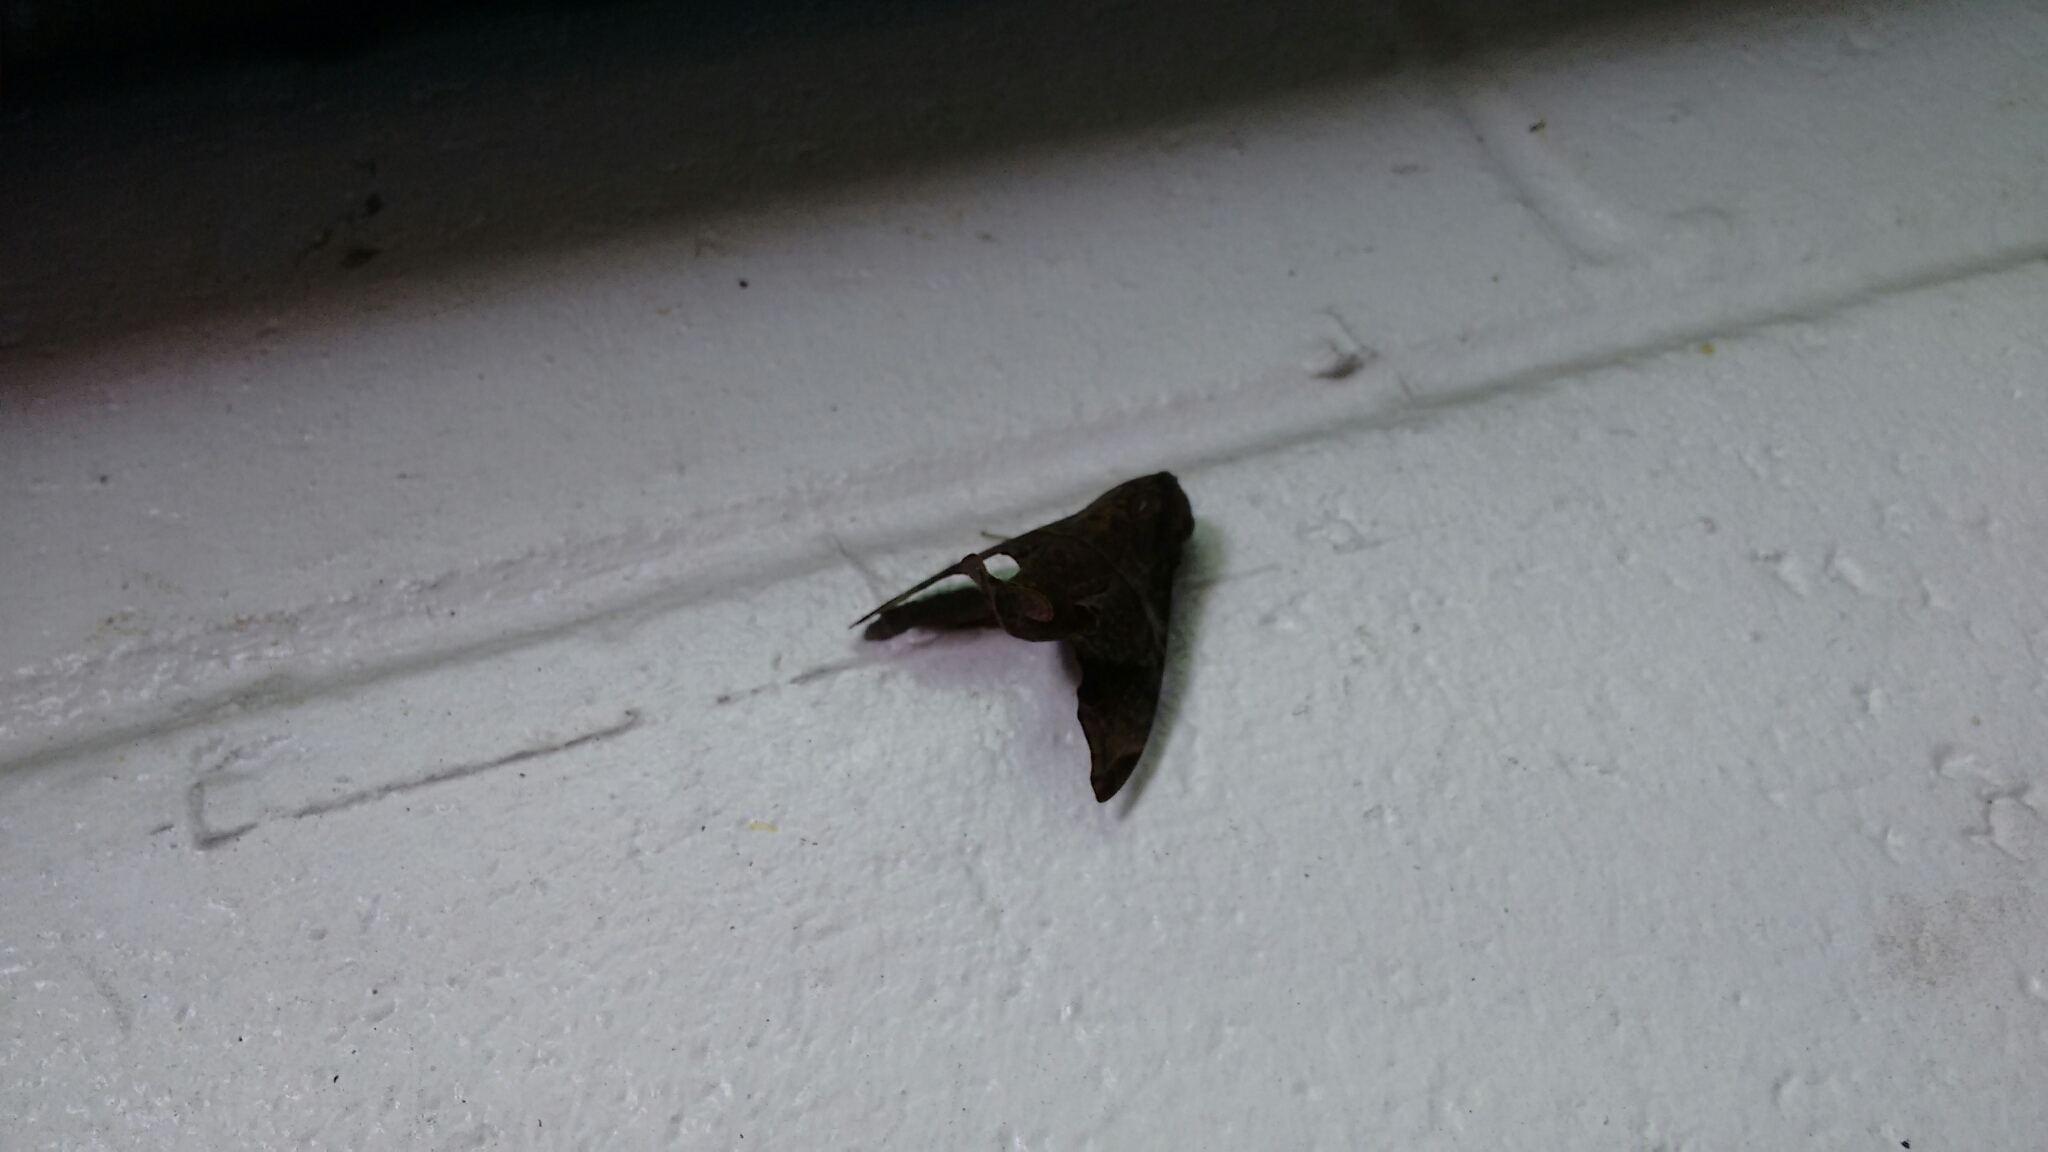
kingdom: Animalia
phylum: Arthropoda
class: Insecta
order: Lepidoptera
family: Sphingidae
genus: Enyo
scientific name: Enyo lugubris
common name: Mournful sphinx
